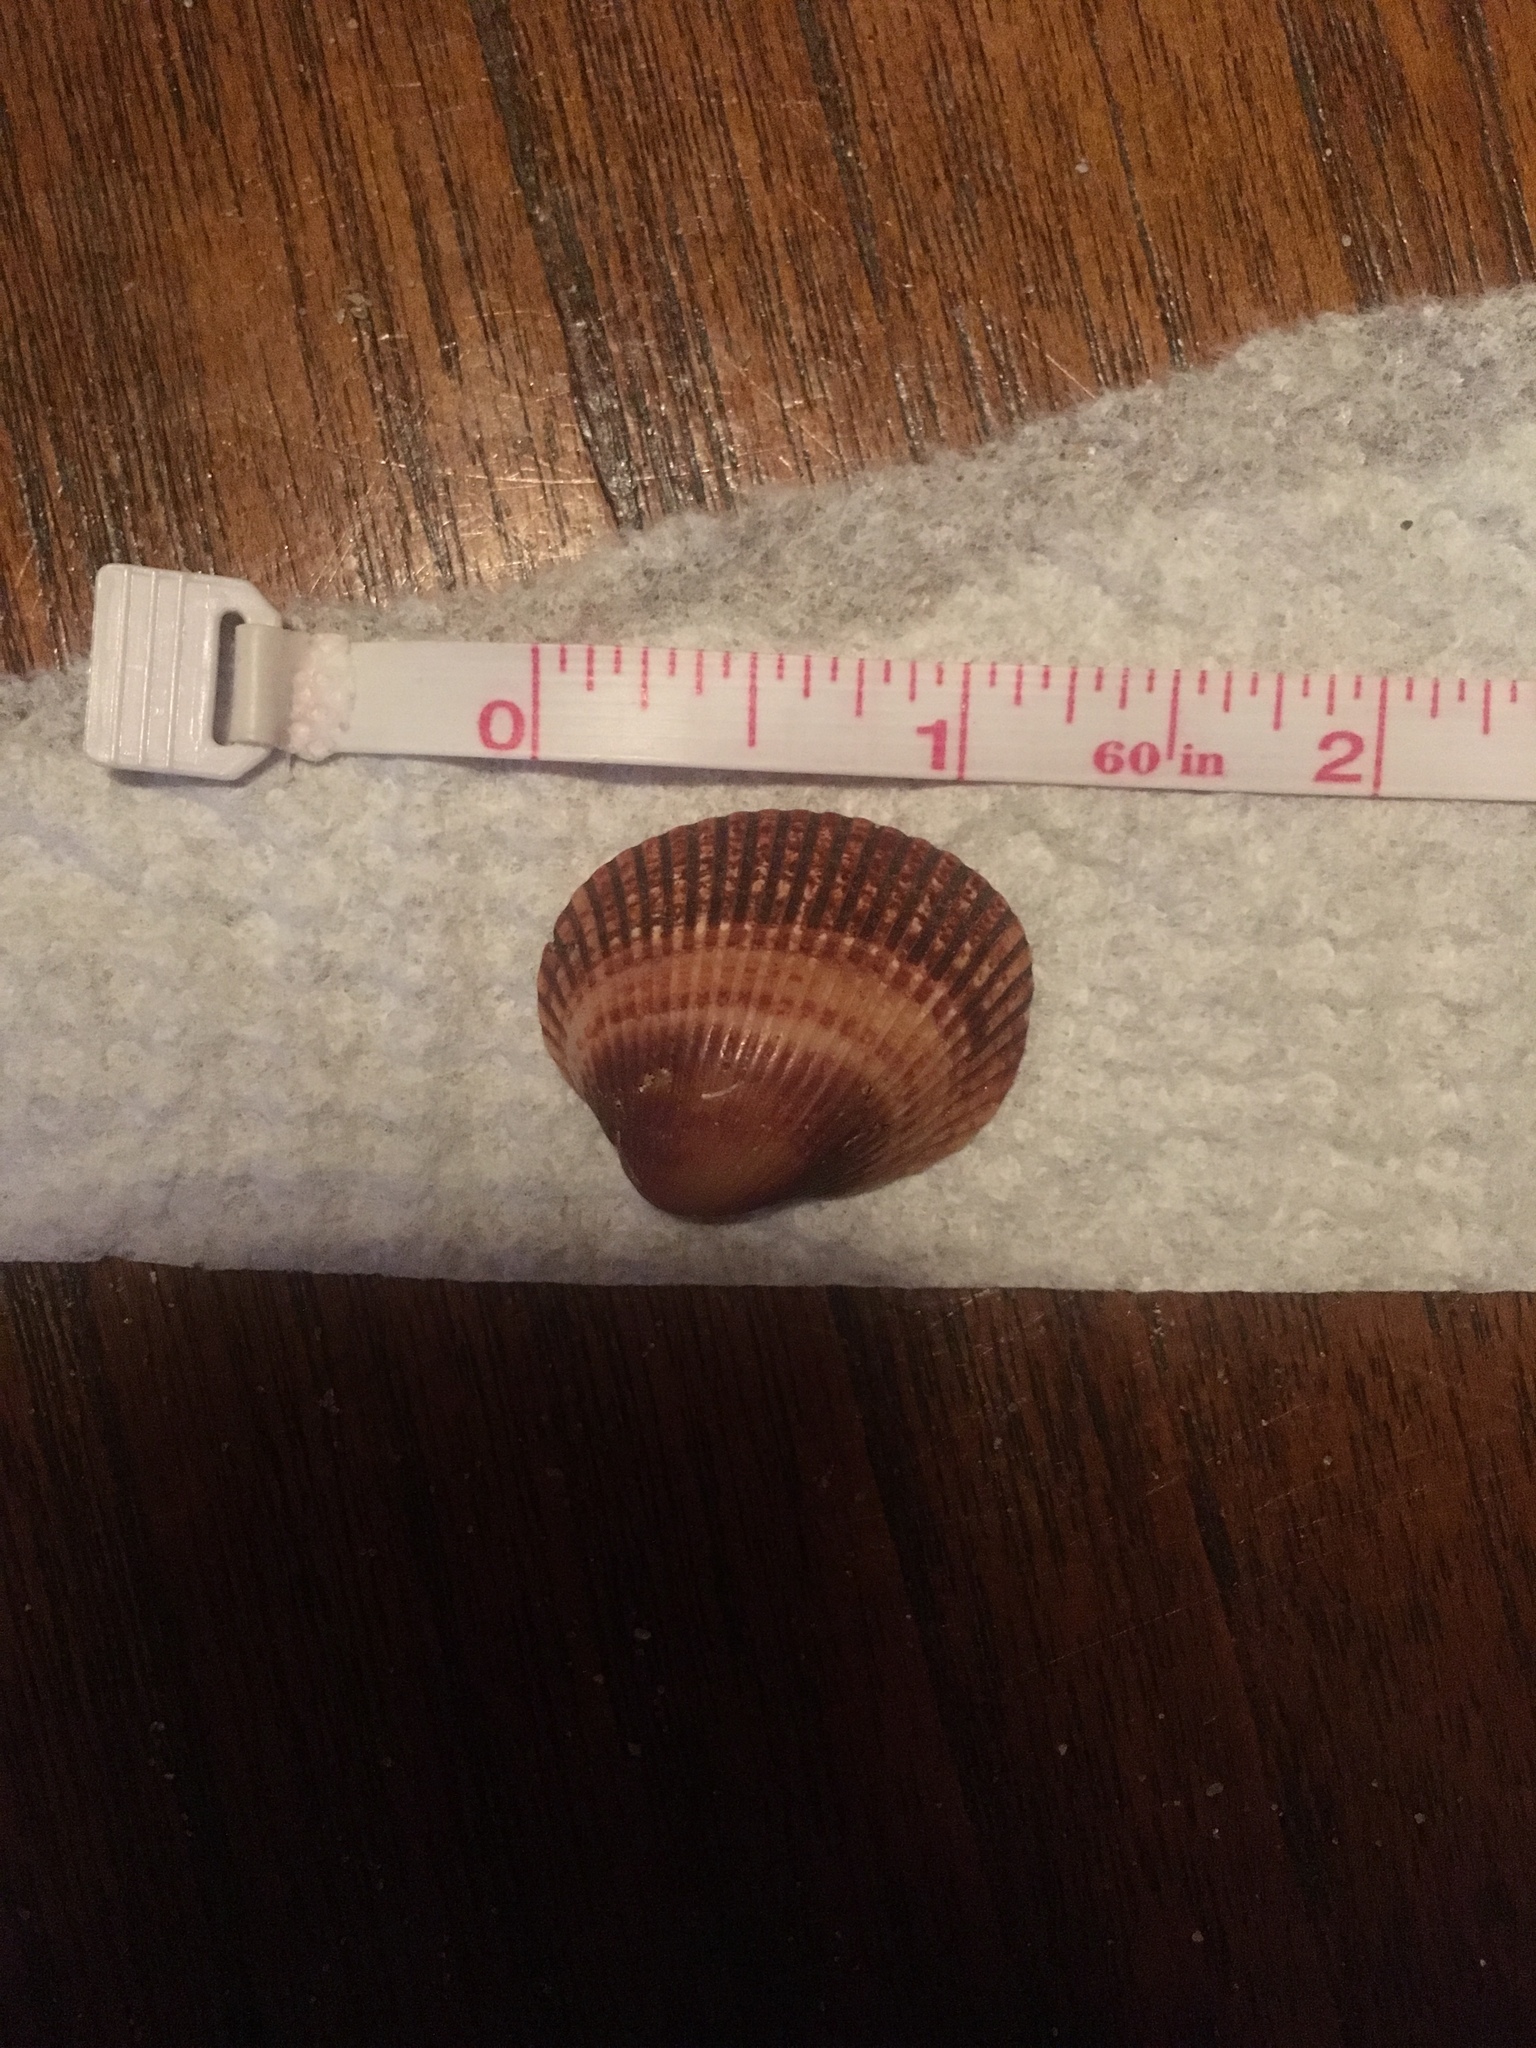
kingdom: Animalia
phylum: Mollusca
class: Bivalvia
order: Arcida
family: Arcidae
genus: Lunarca
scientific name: Lunarca ovalis
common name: Blood ark
